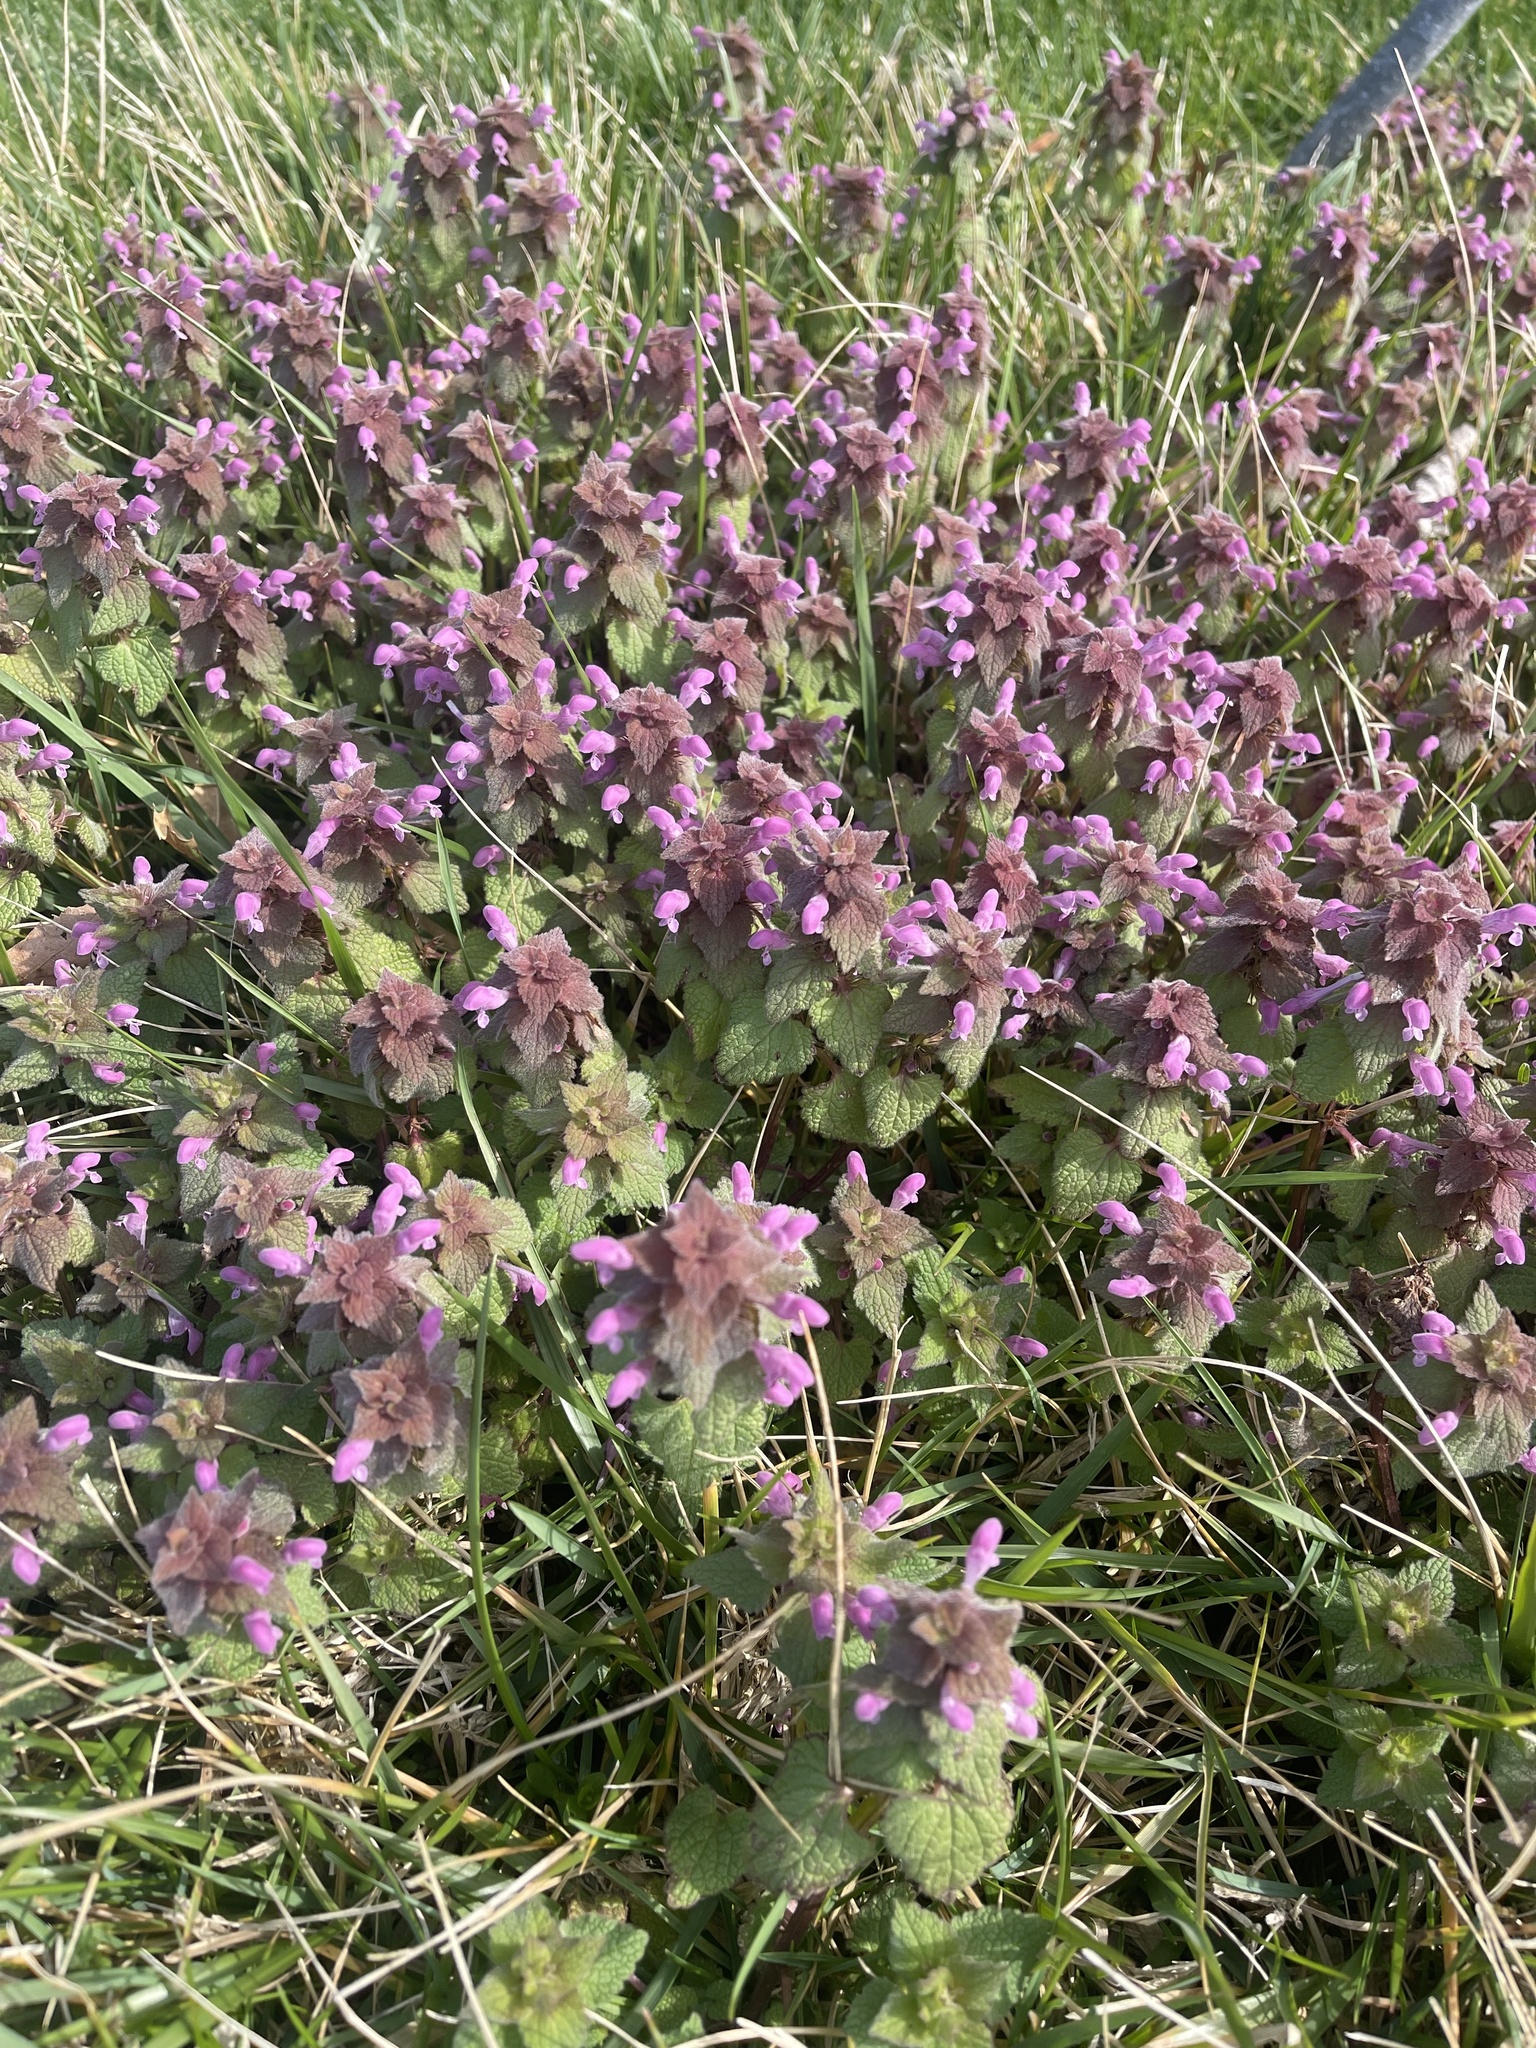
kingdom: Plantae
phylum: Tracheophyta
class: Magnoliopsida
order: Lamiales
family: Lamiaceae
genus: Lamium
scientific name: Lamium purpureum
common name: Red dead-nettle
